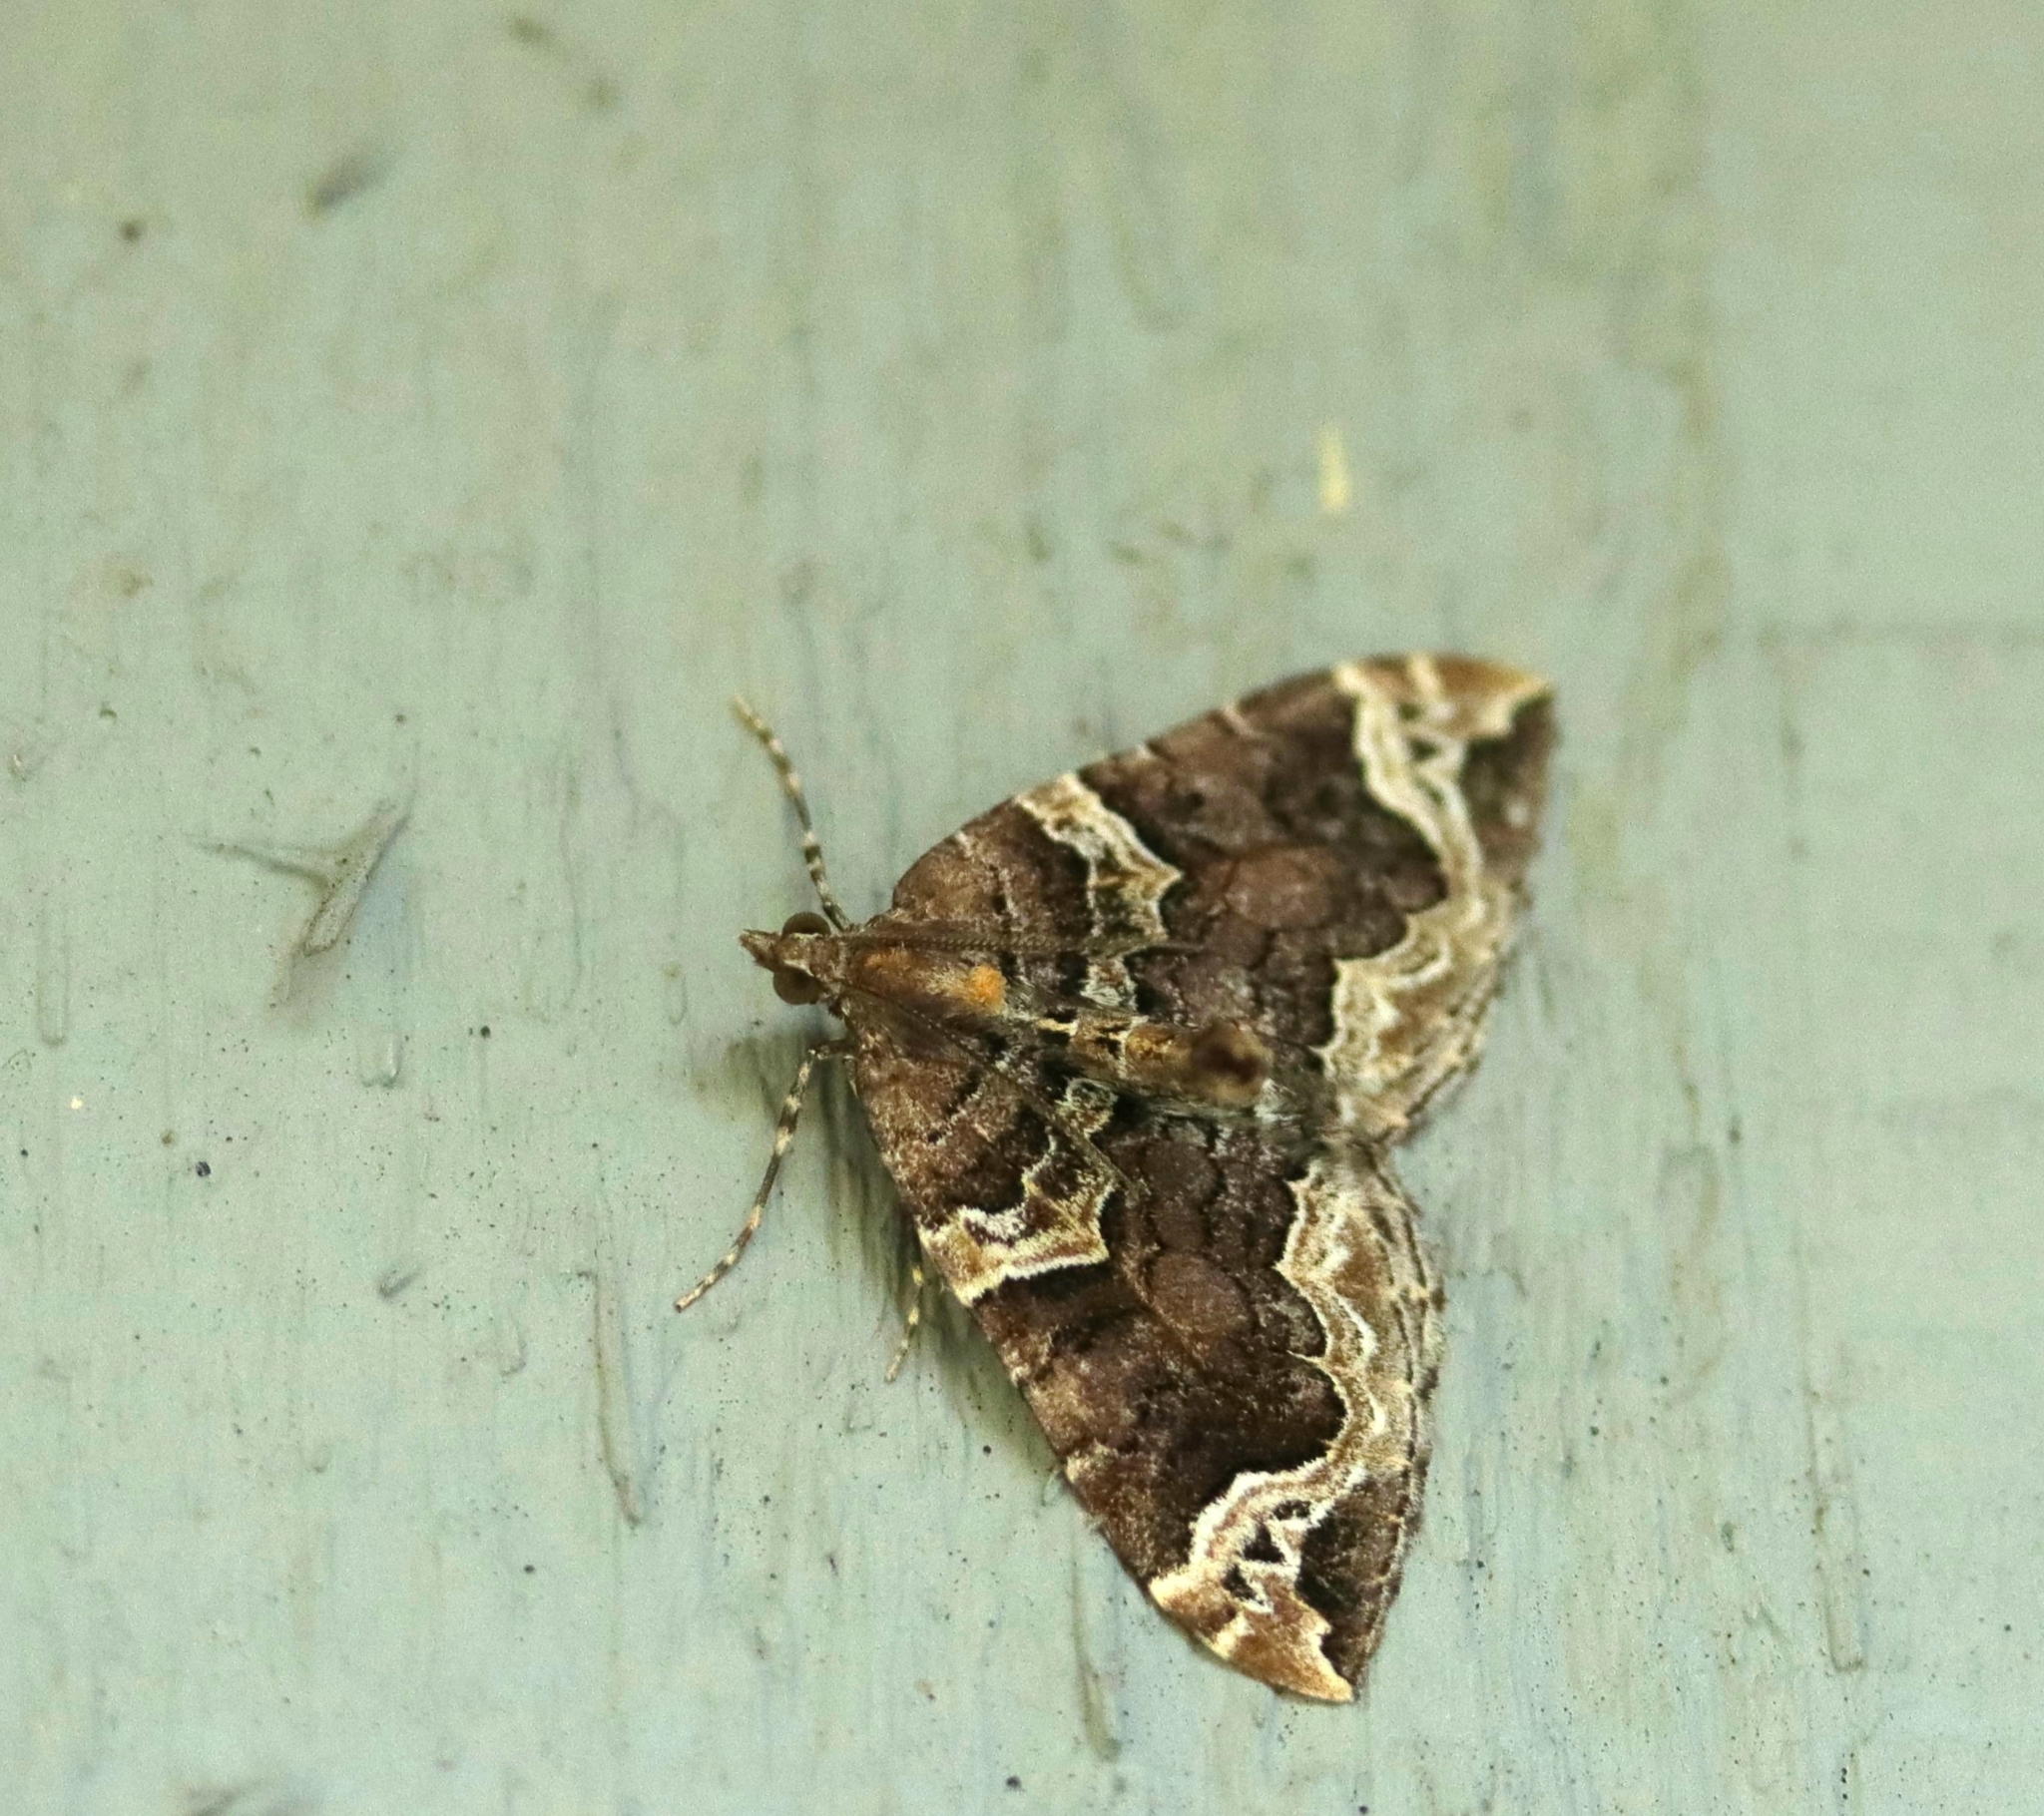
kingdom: Animalia
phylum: Arthropoda
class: Insecta
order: Lepidoptera
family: Geometridae
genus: Eulithis
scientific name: Eulithis xylina
